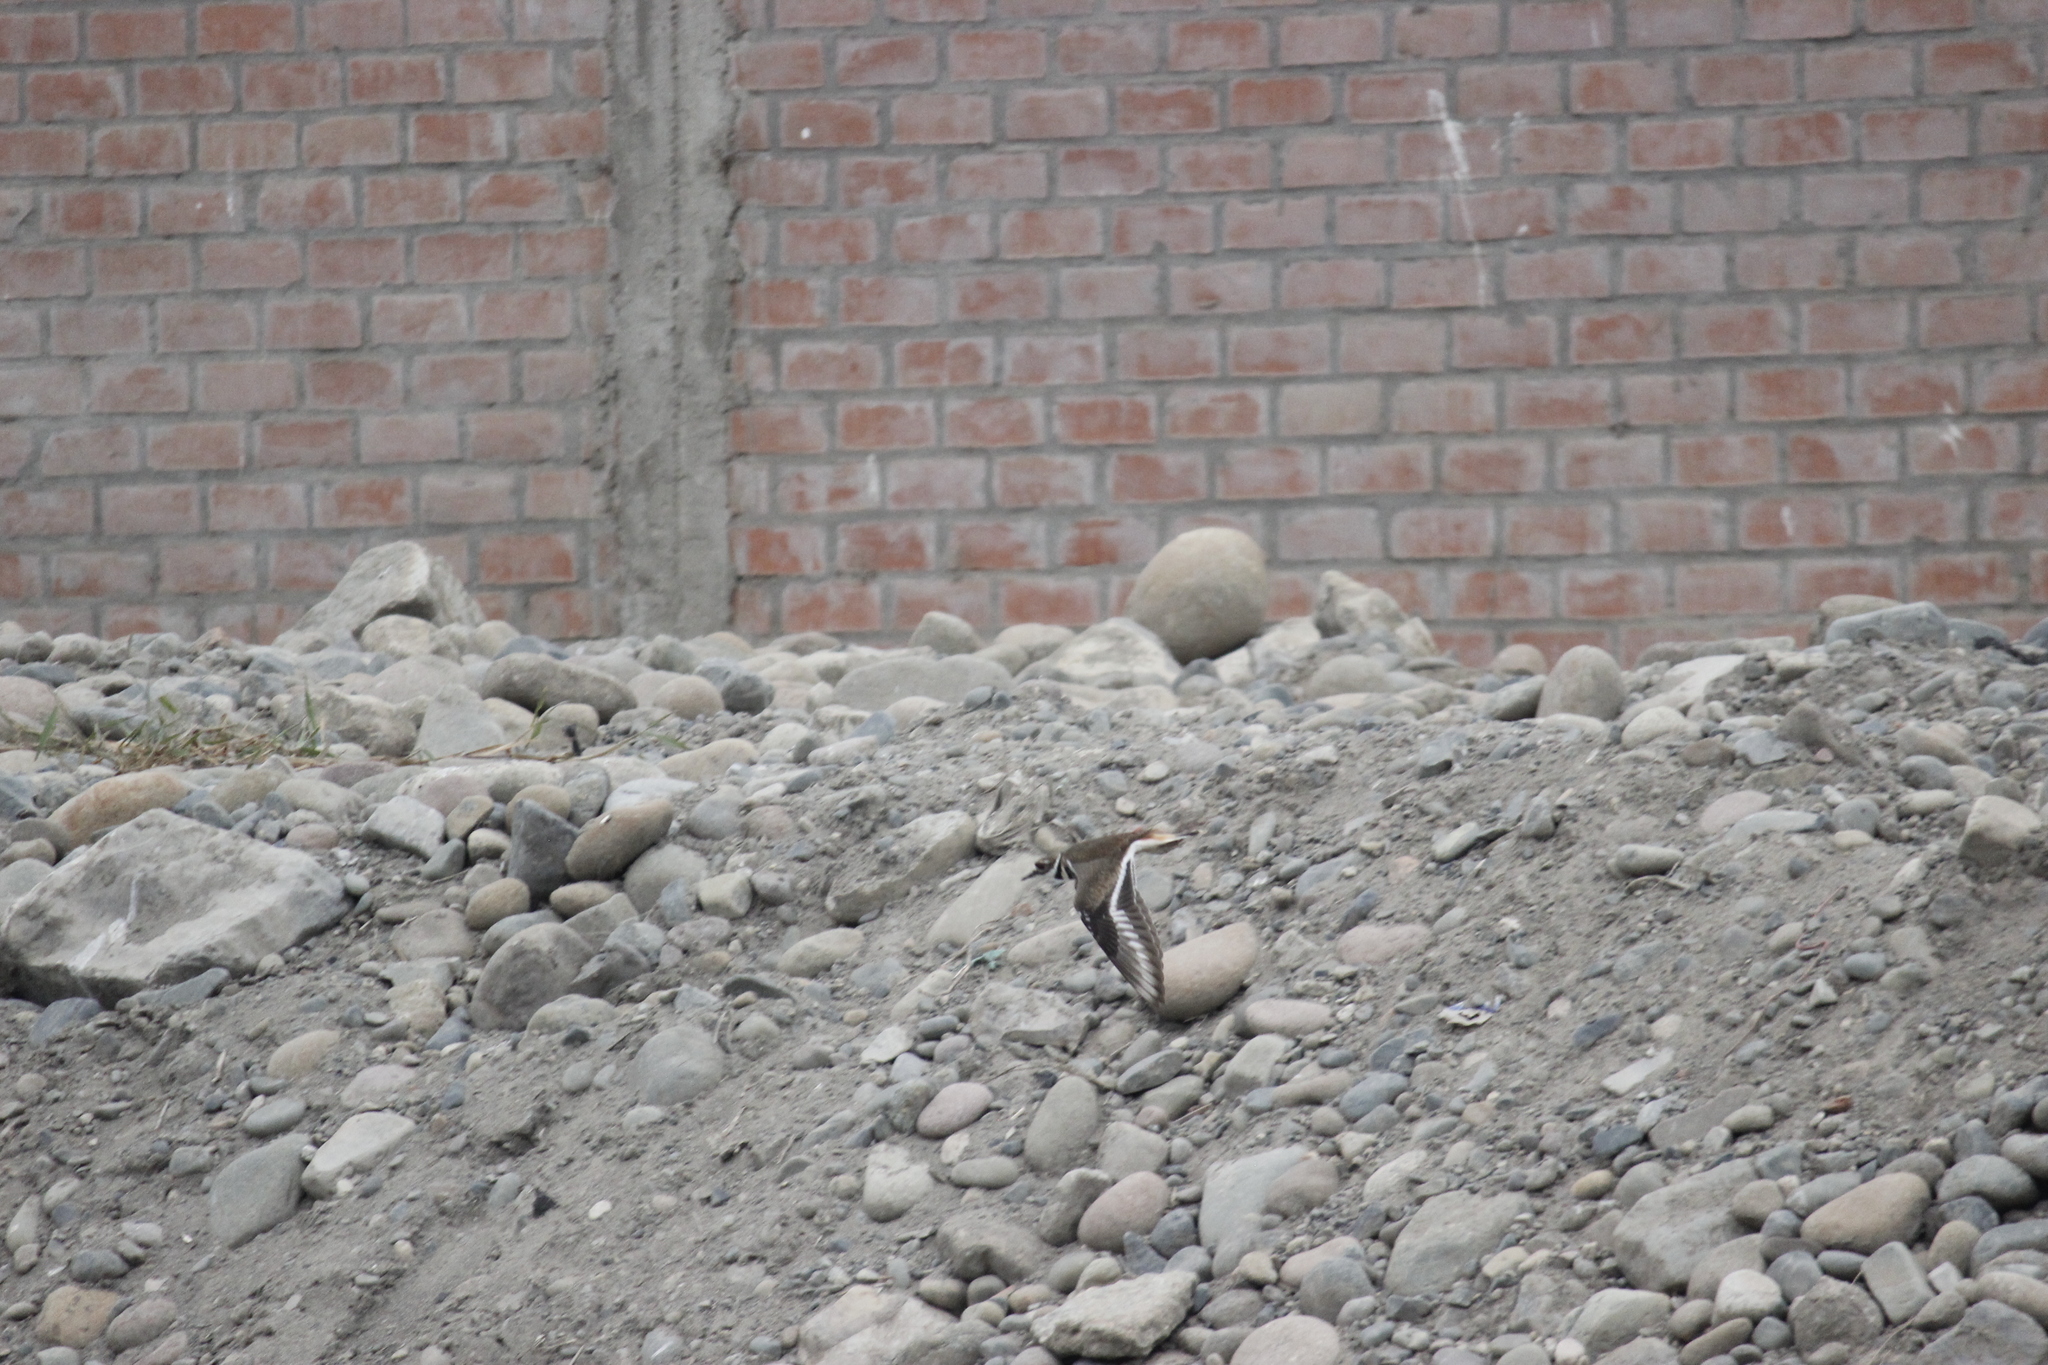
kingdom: Animalia
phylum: Chordata
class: Aves
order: Charadriiformes
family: Charadriidae
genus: Charadrius
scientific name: Charadrius vociferus
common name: Killdeer
